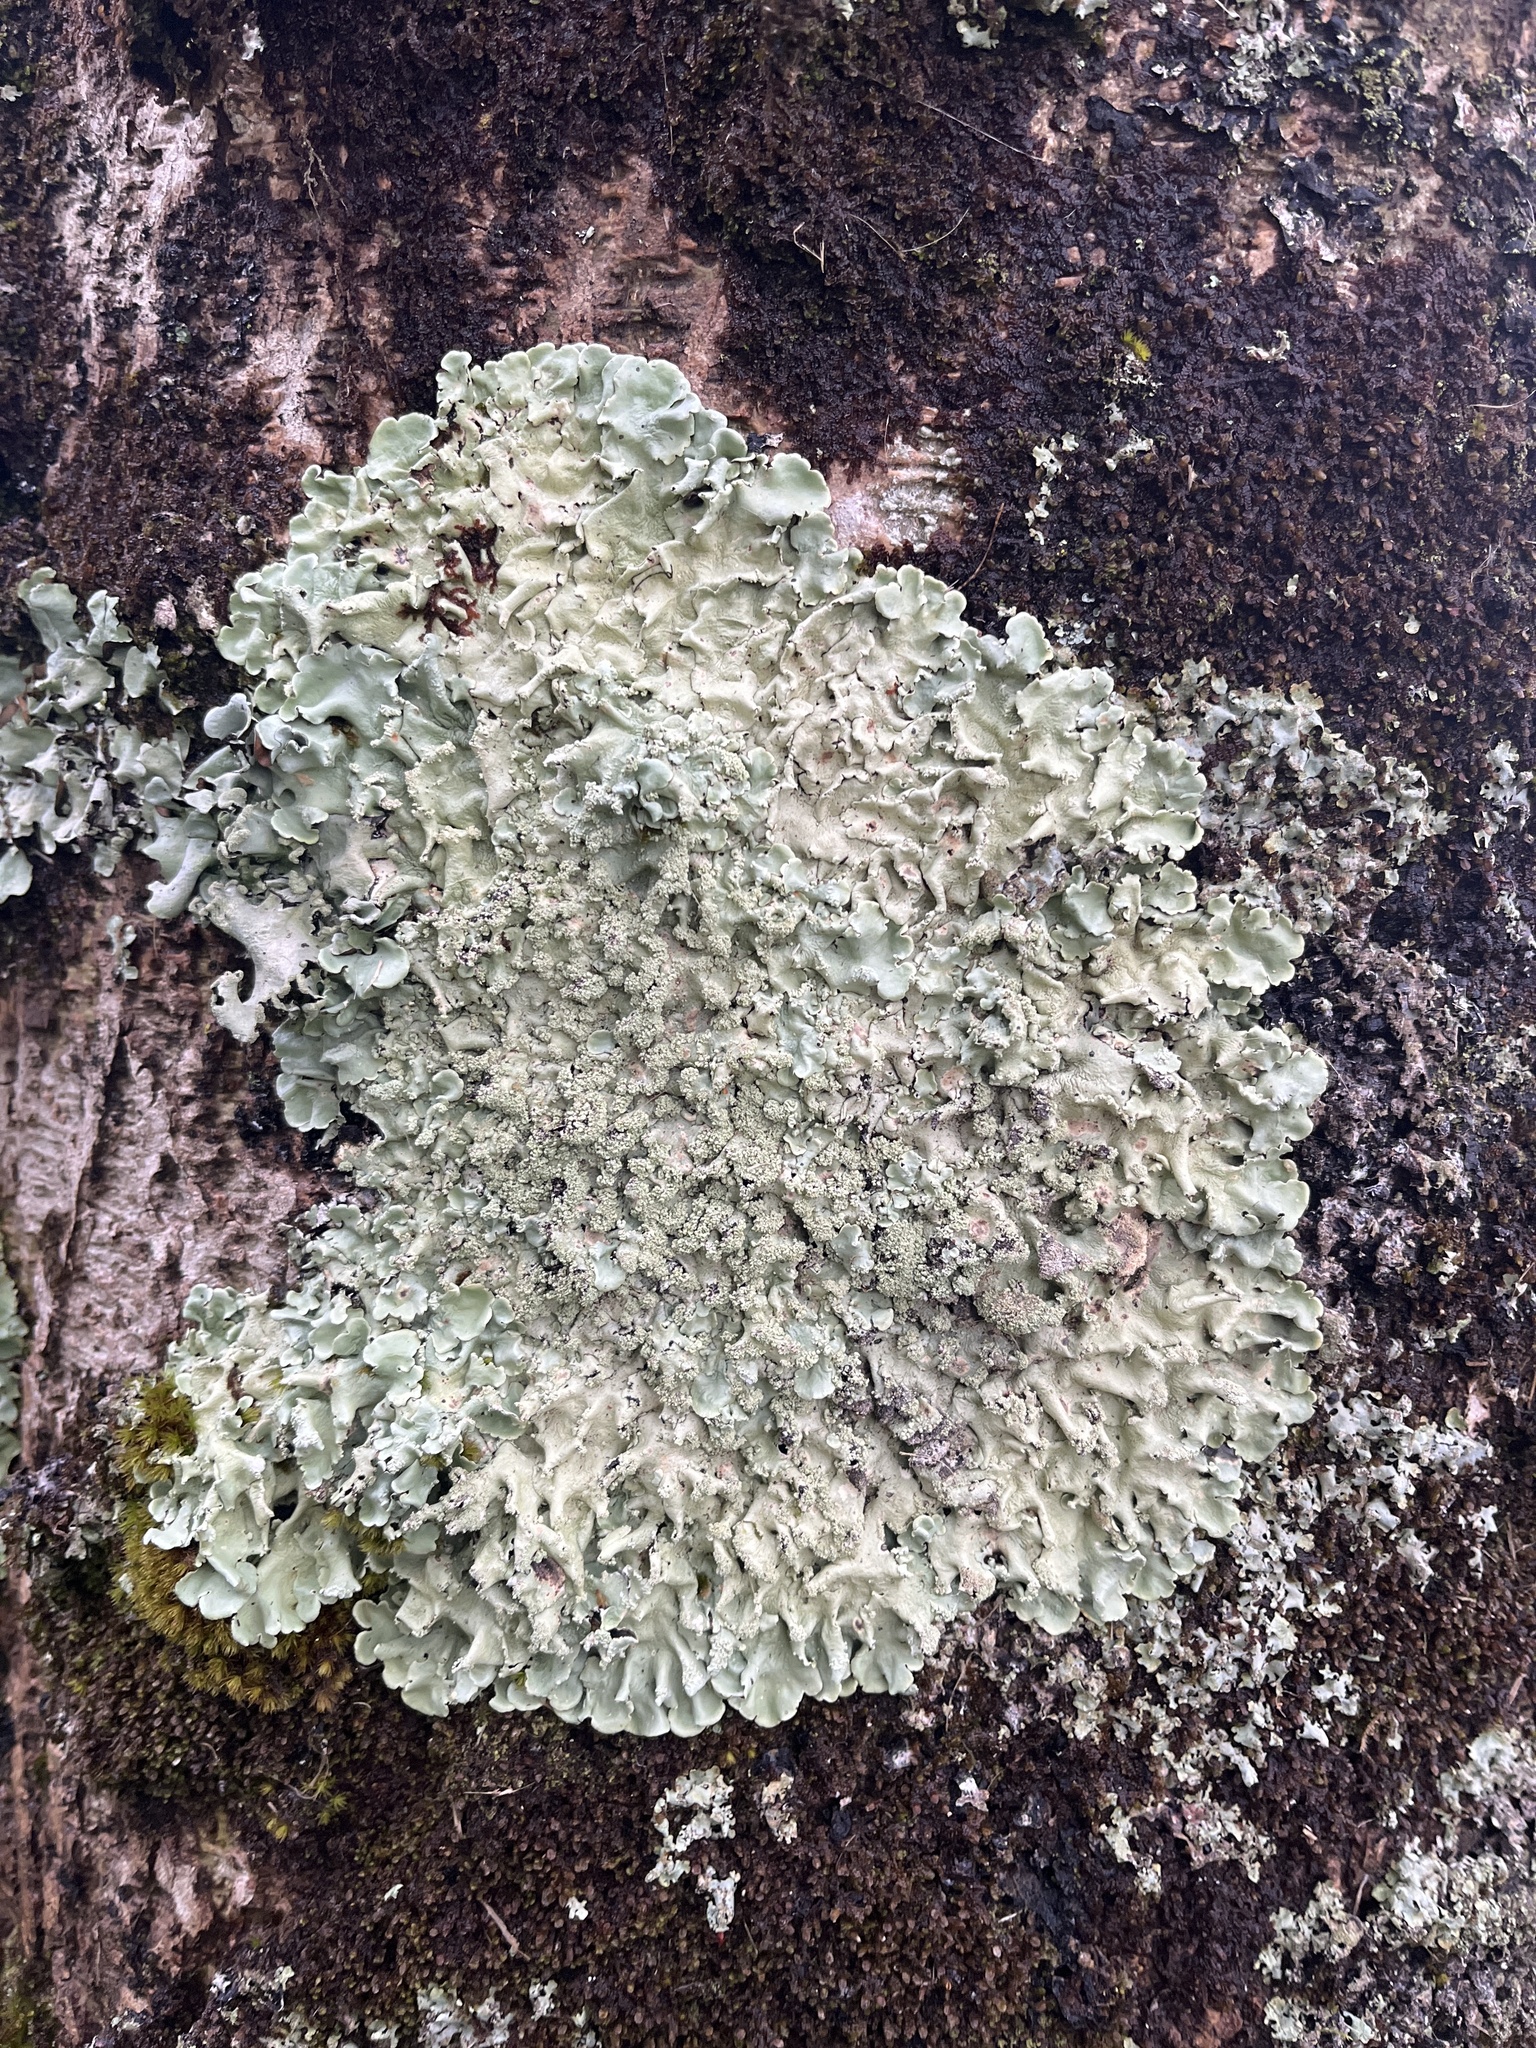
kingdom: Fungi
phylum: Ascomycota
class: Lecanoromycetes
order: Lecanorales
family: Parmeliaceae
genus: Flavoparmelia
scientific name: Flavoparmelia caperata
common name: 40-mile per hour lichen
